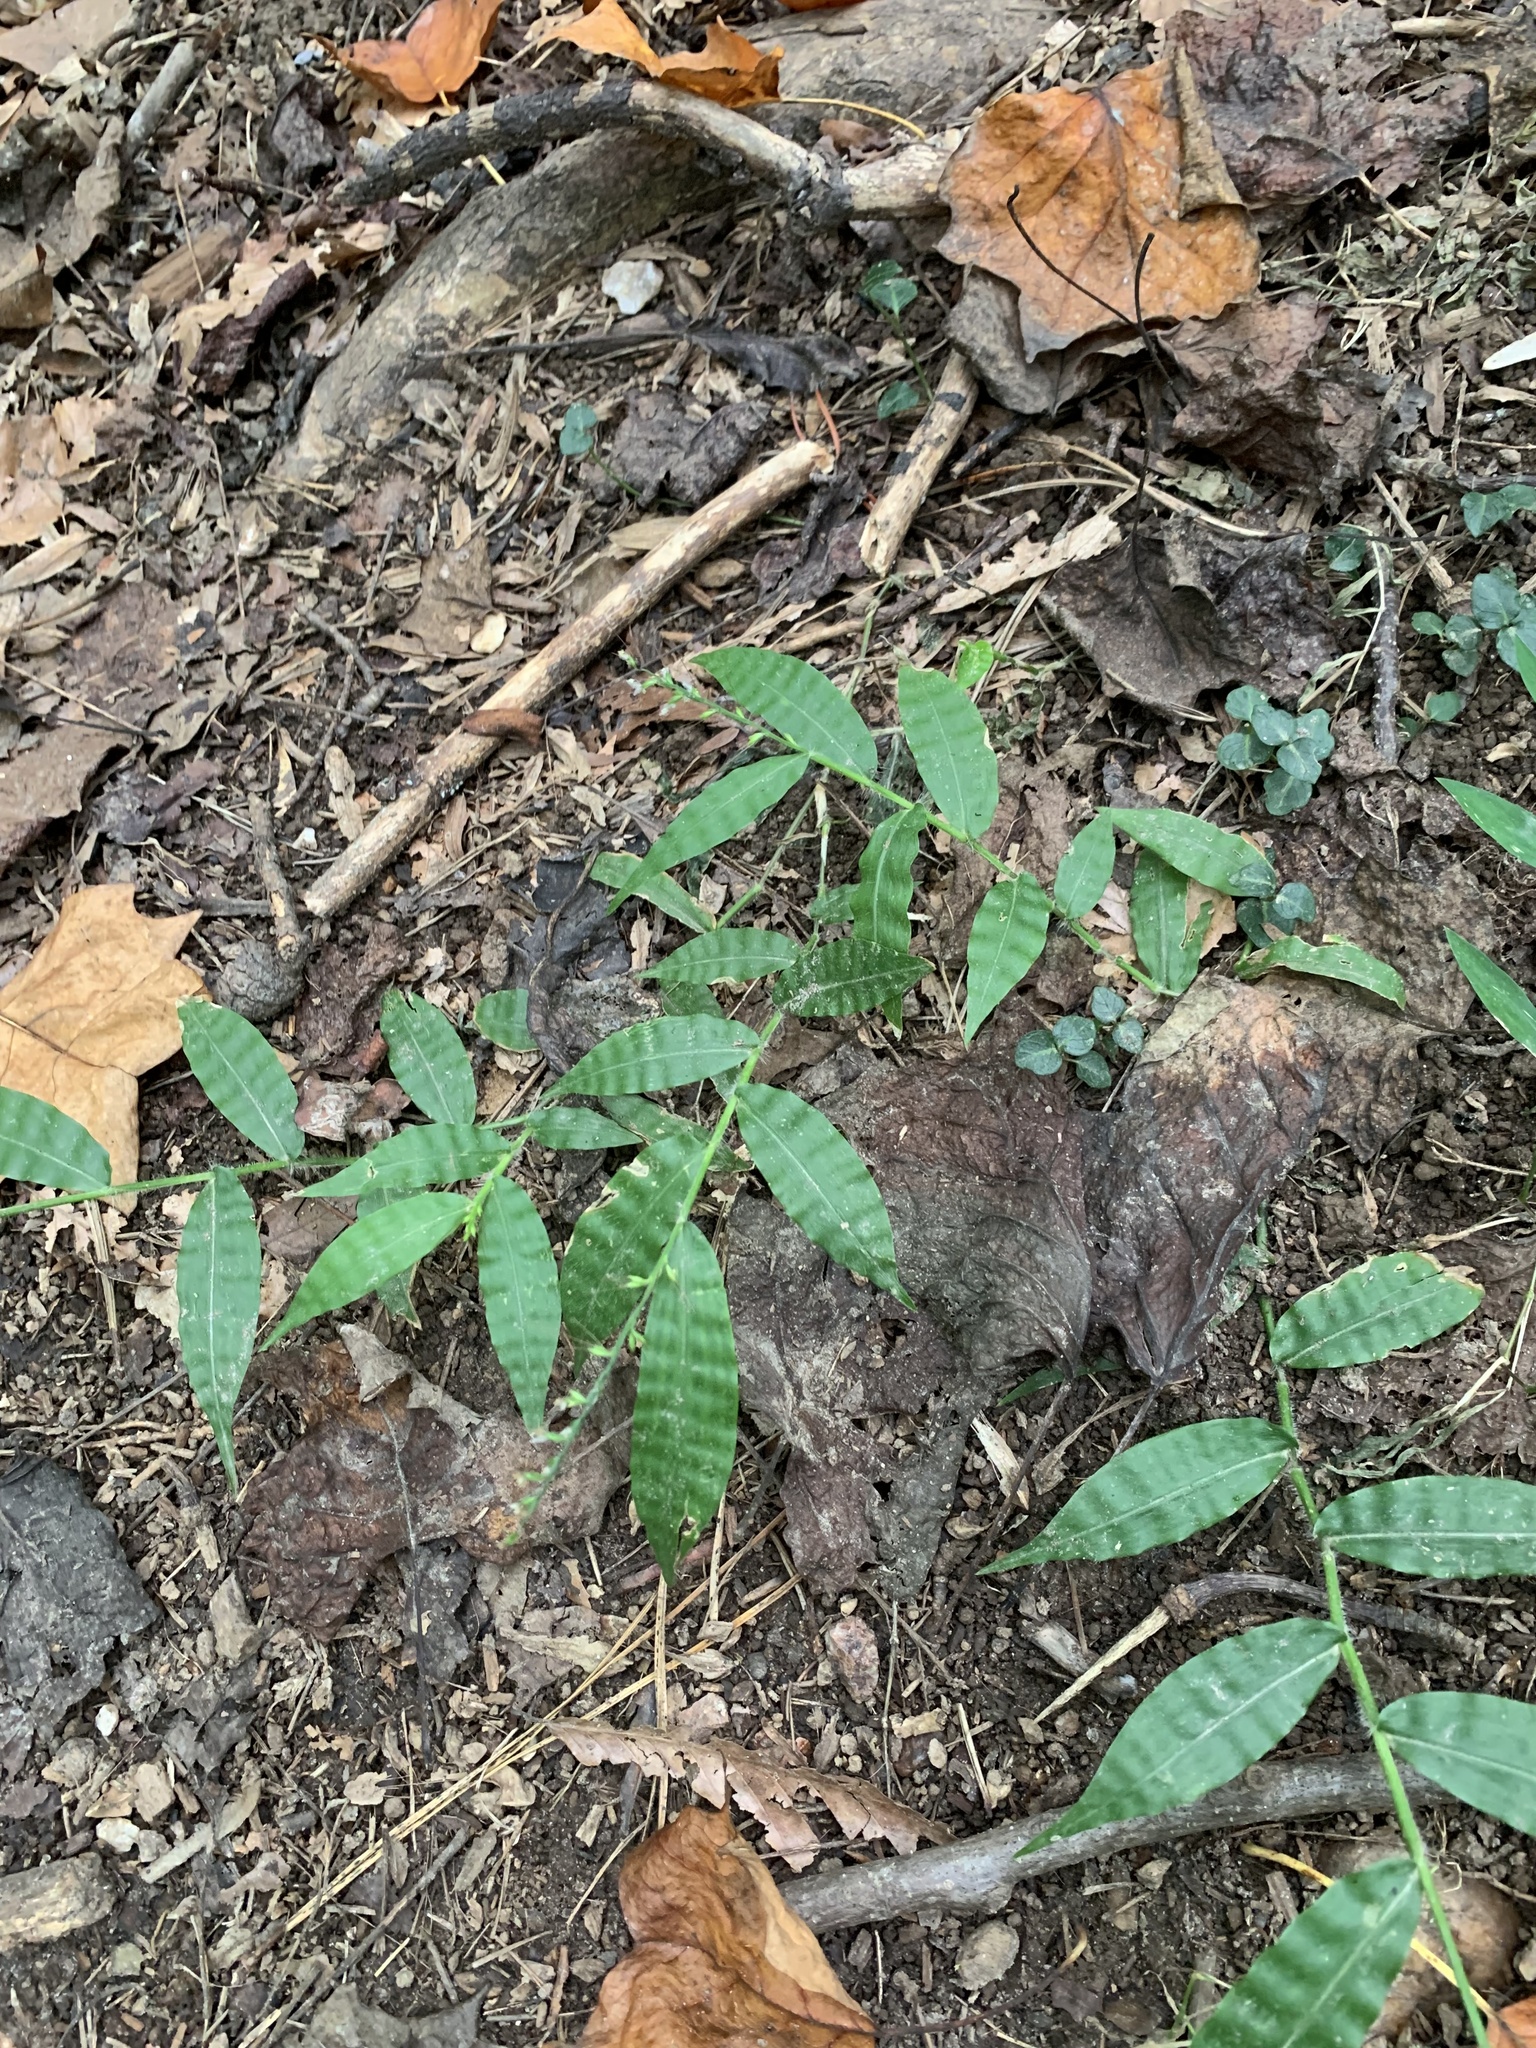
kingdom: Plantae
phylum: Tracheophyta
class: Liliopsida
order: Poales
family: Poaceae
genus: Oplismenus
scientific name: Oplismenus undulatifolius
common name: Wavyleaf basketgrass
